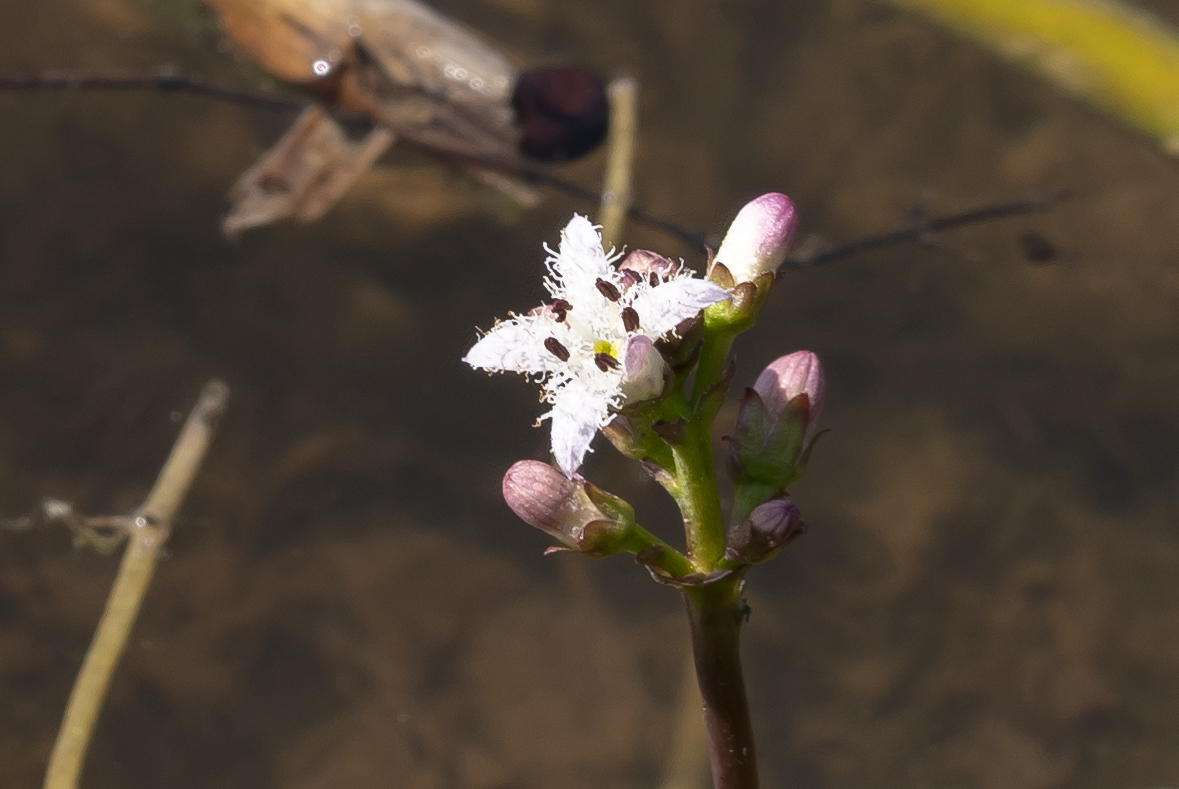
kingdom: Plantae
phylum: Tracheophyta
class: Magnoliopsida
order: Asterales
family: Menyanthaceae
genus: Menyanthes
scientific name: Menyanthes trifoliata
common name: Bogbean
